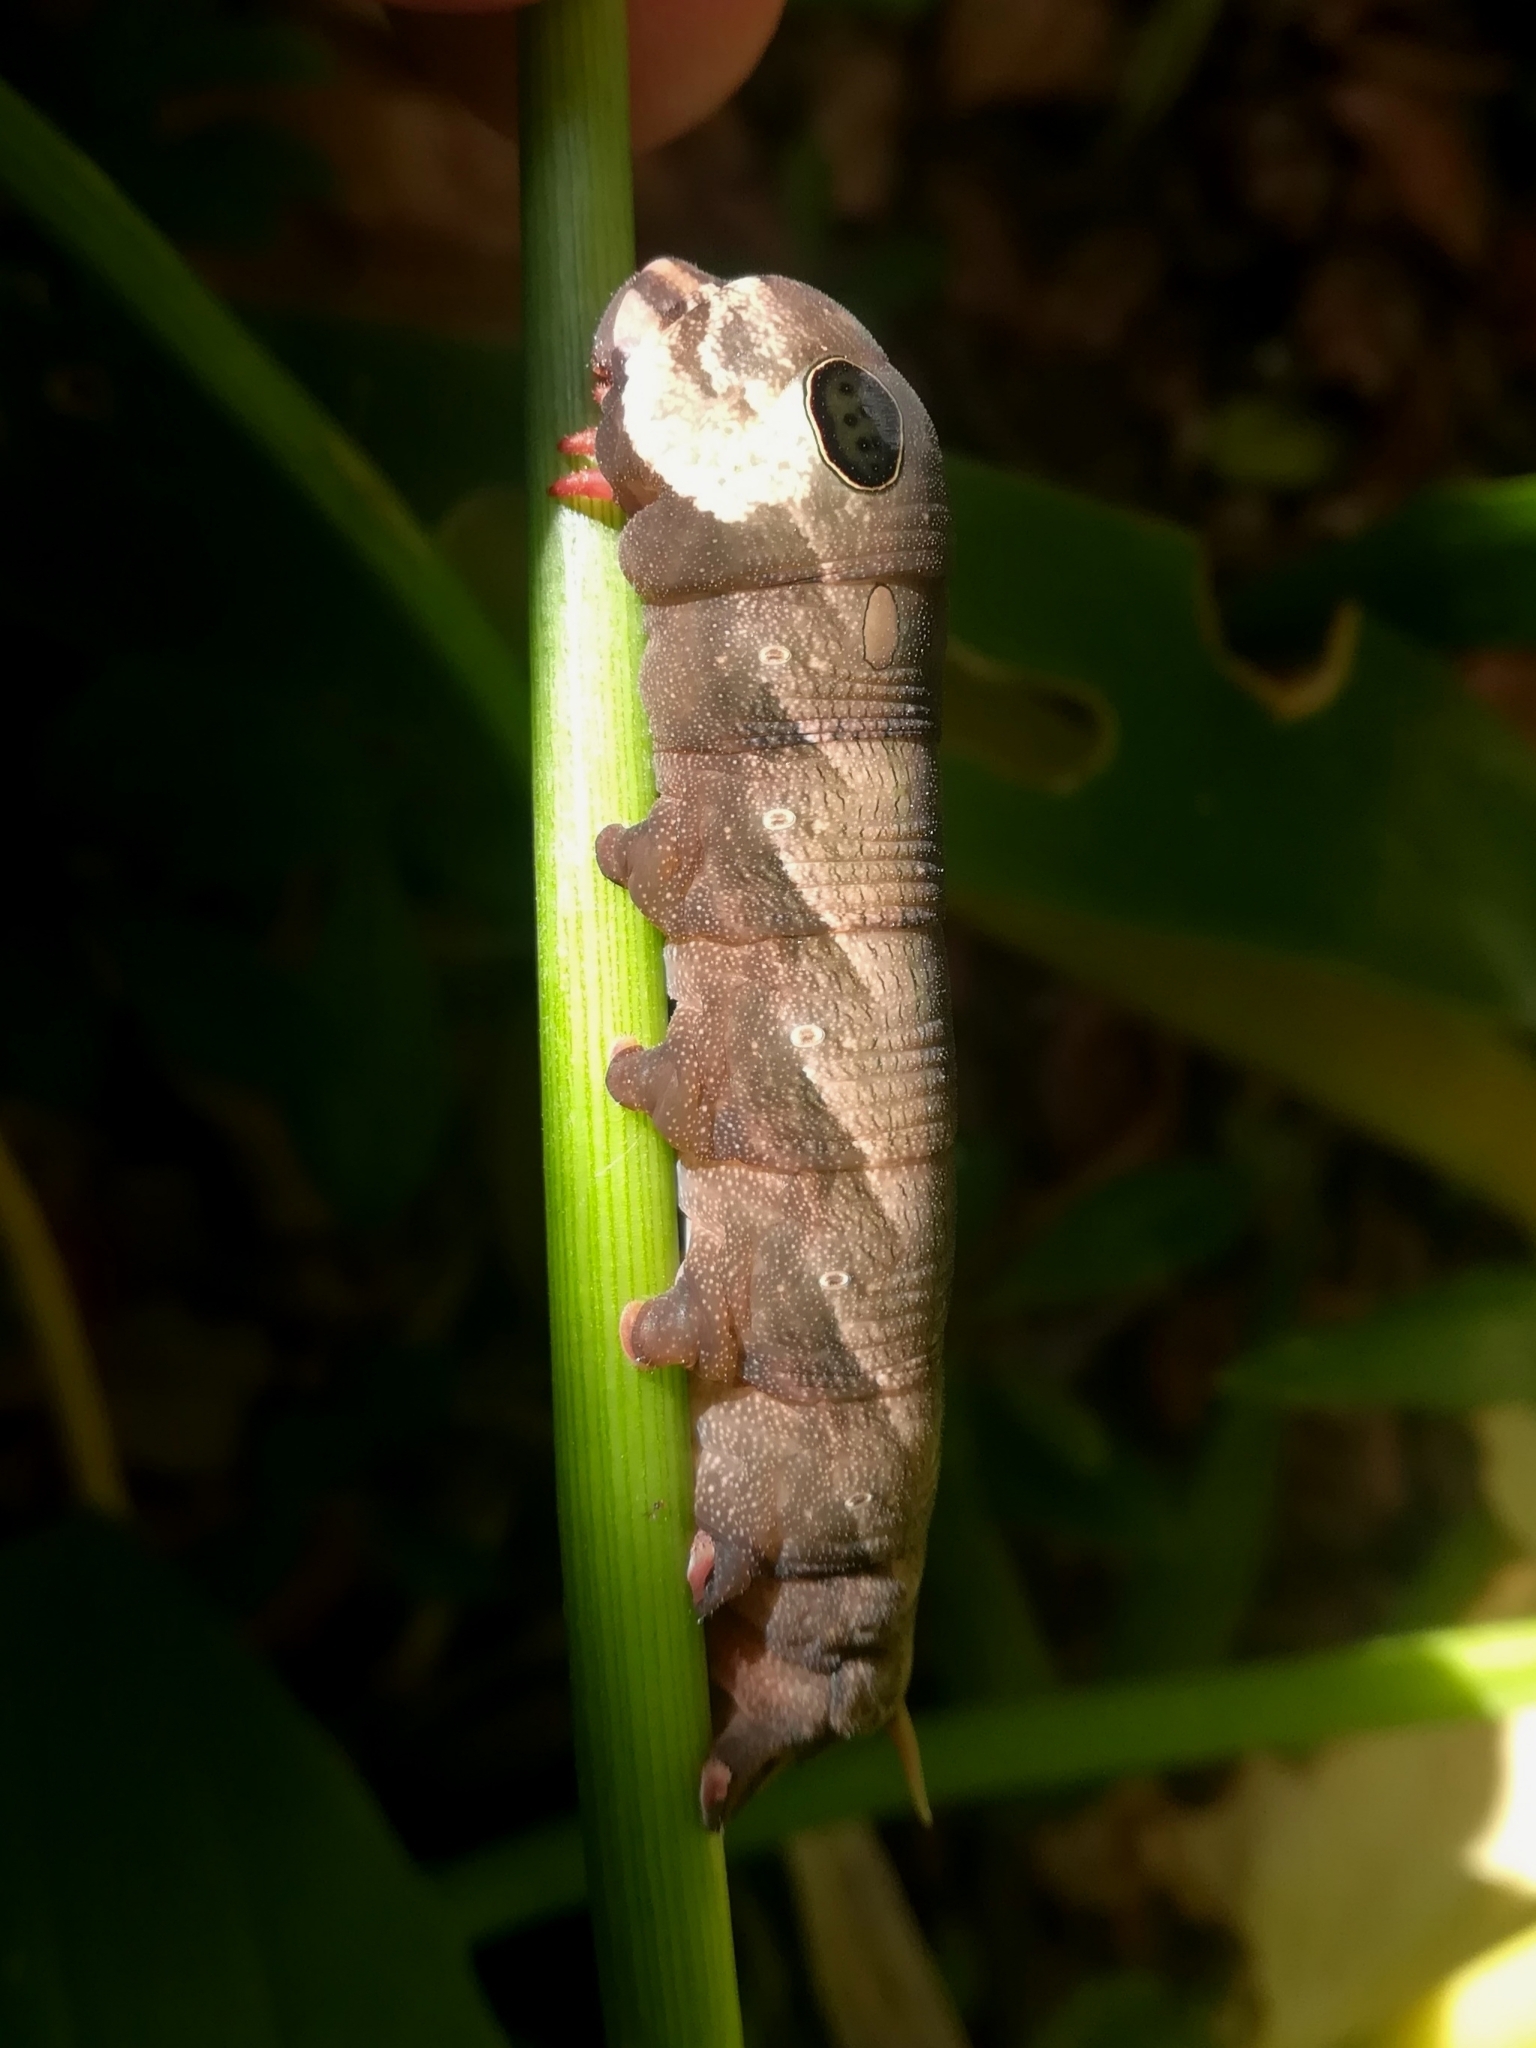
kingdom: Animalia
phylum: Arthropoda
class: Insecta
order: Lepidoptera
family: Sphingidae
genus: Hippotion
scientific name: Hippotion eson
